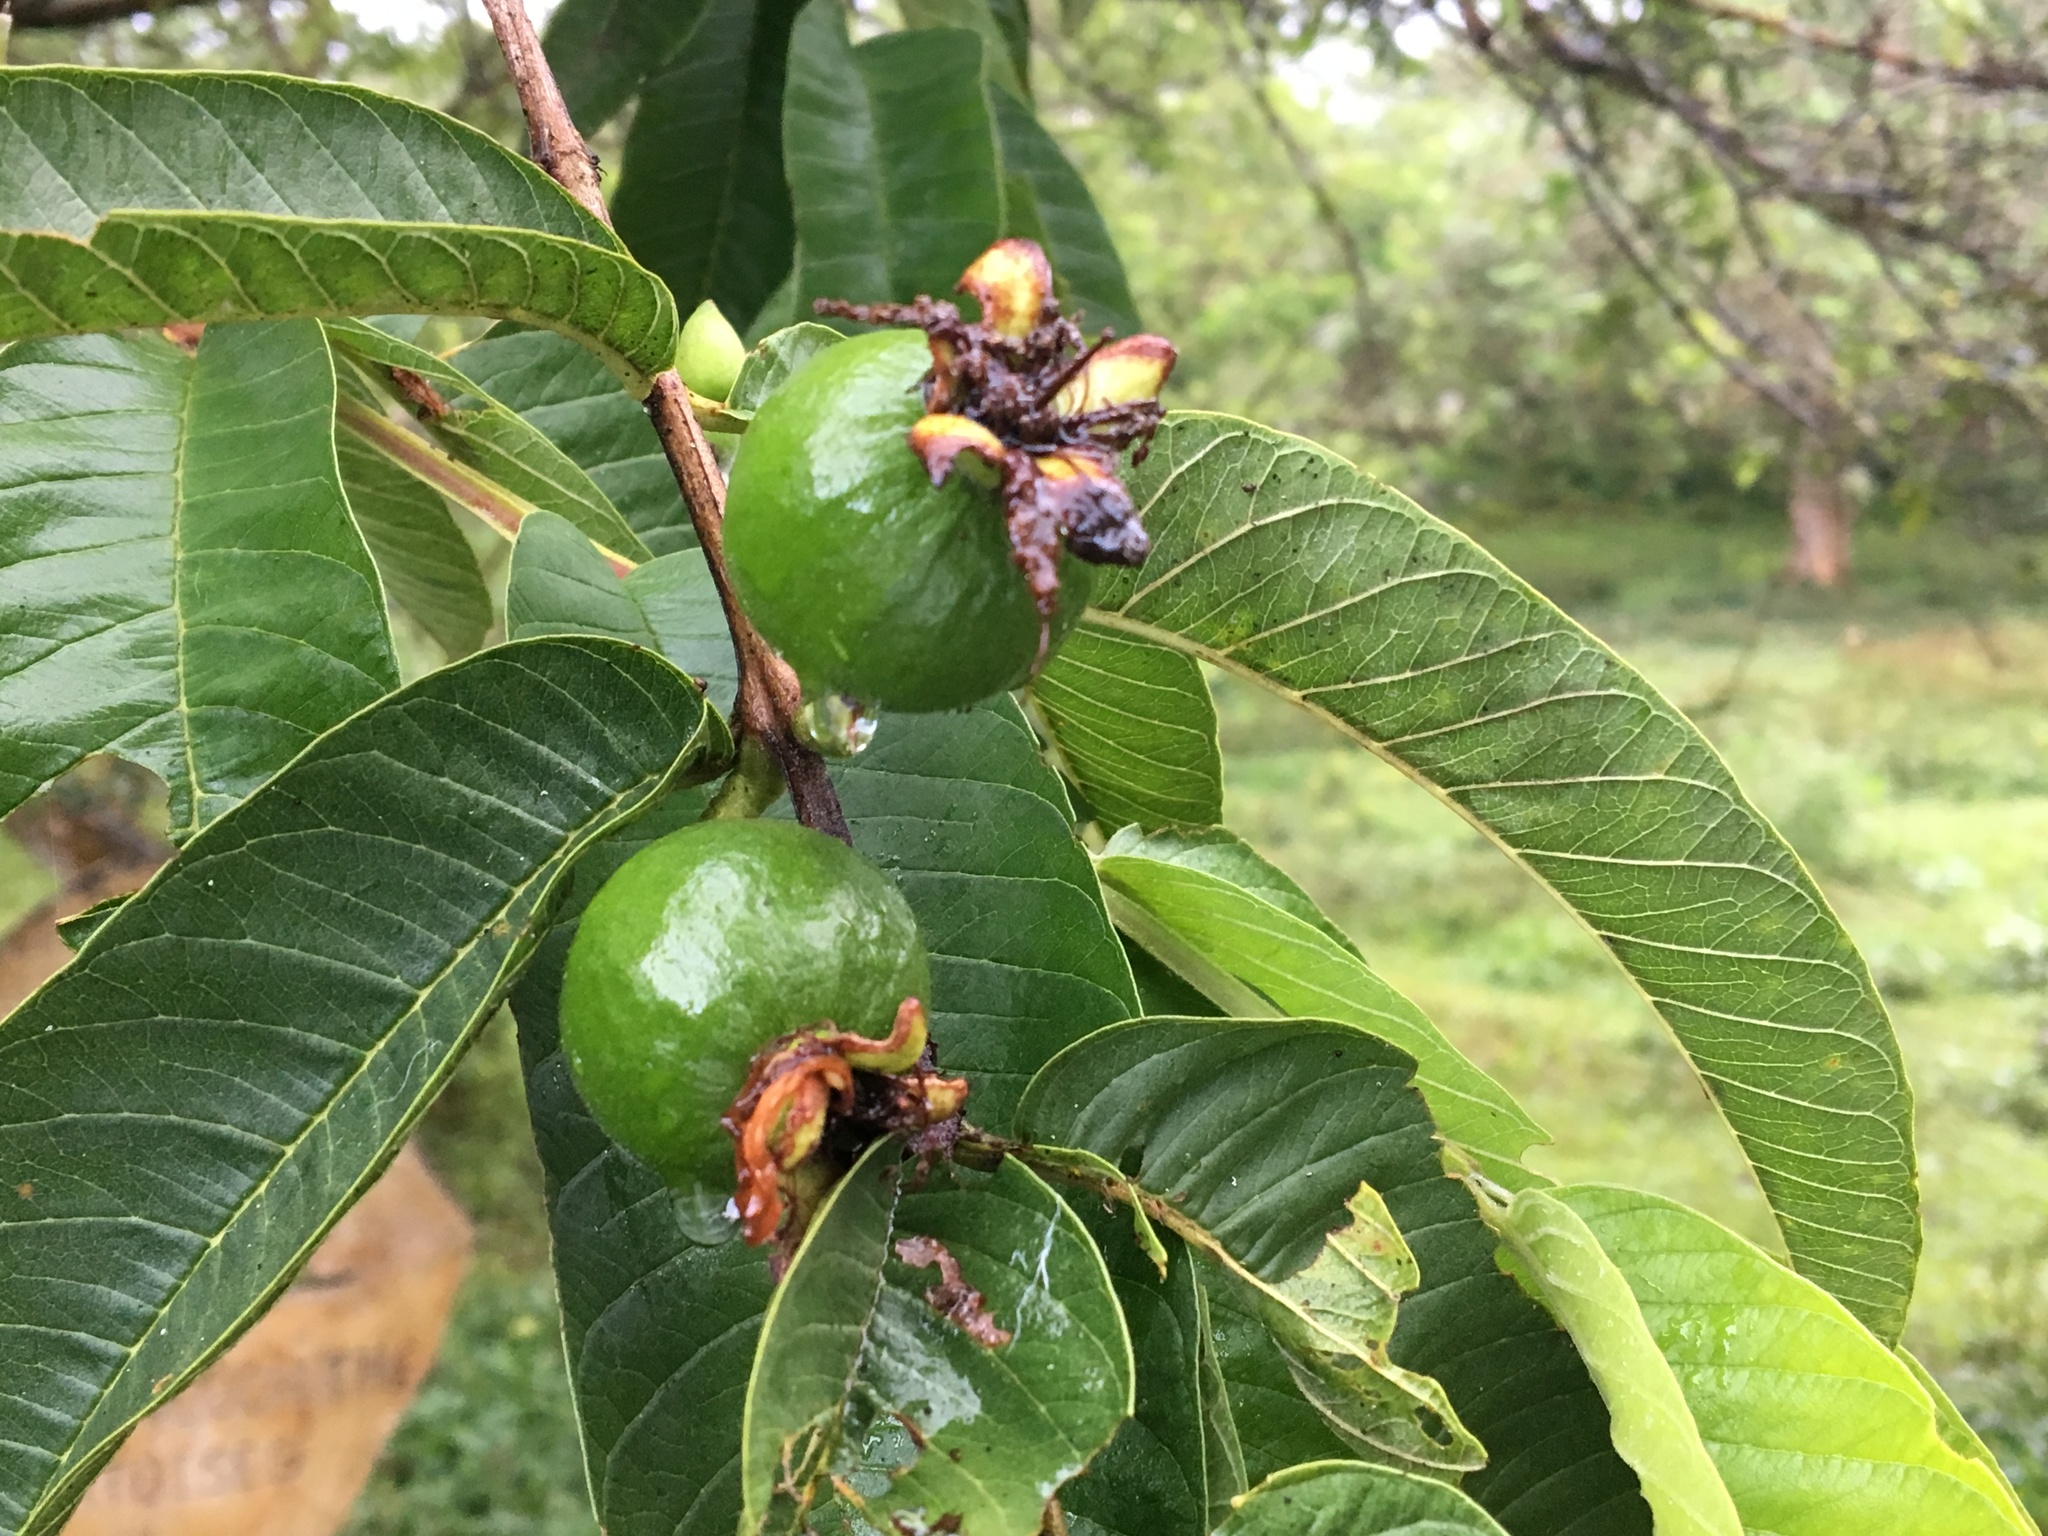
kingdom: Plantae
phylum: Tracheophyta
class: Magnoliopsida
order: Myrtales
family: Myrtaceae
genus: Psidium
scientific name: Psidium guajava
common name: Guava
